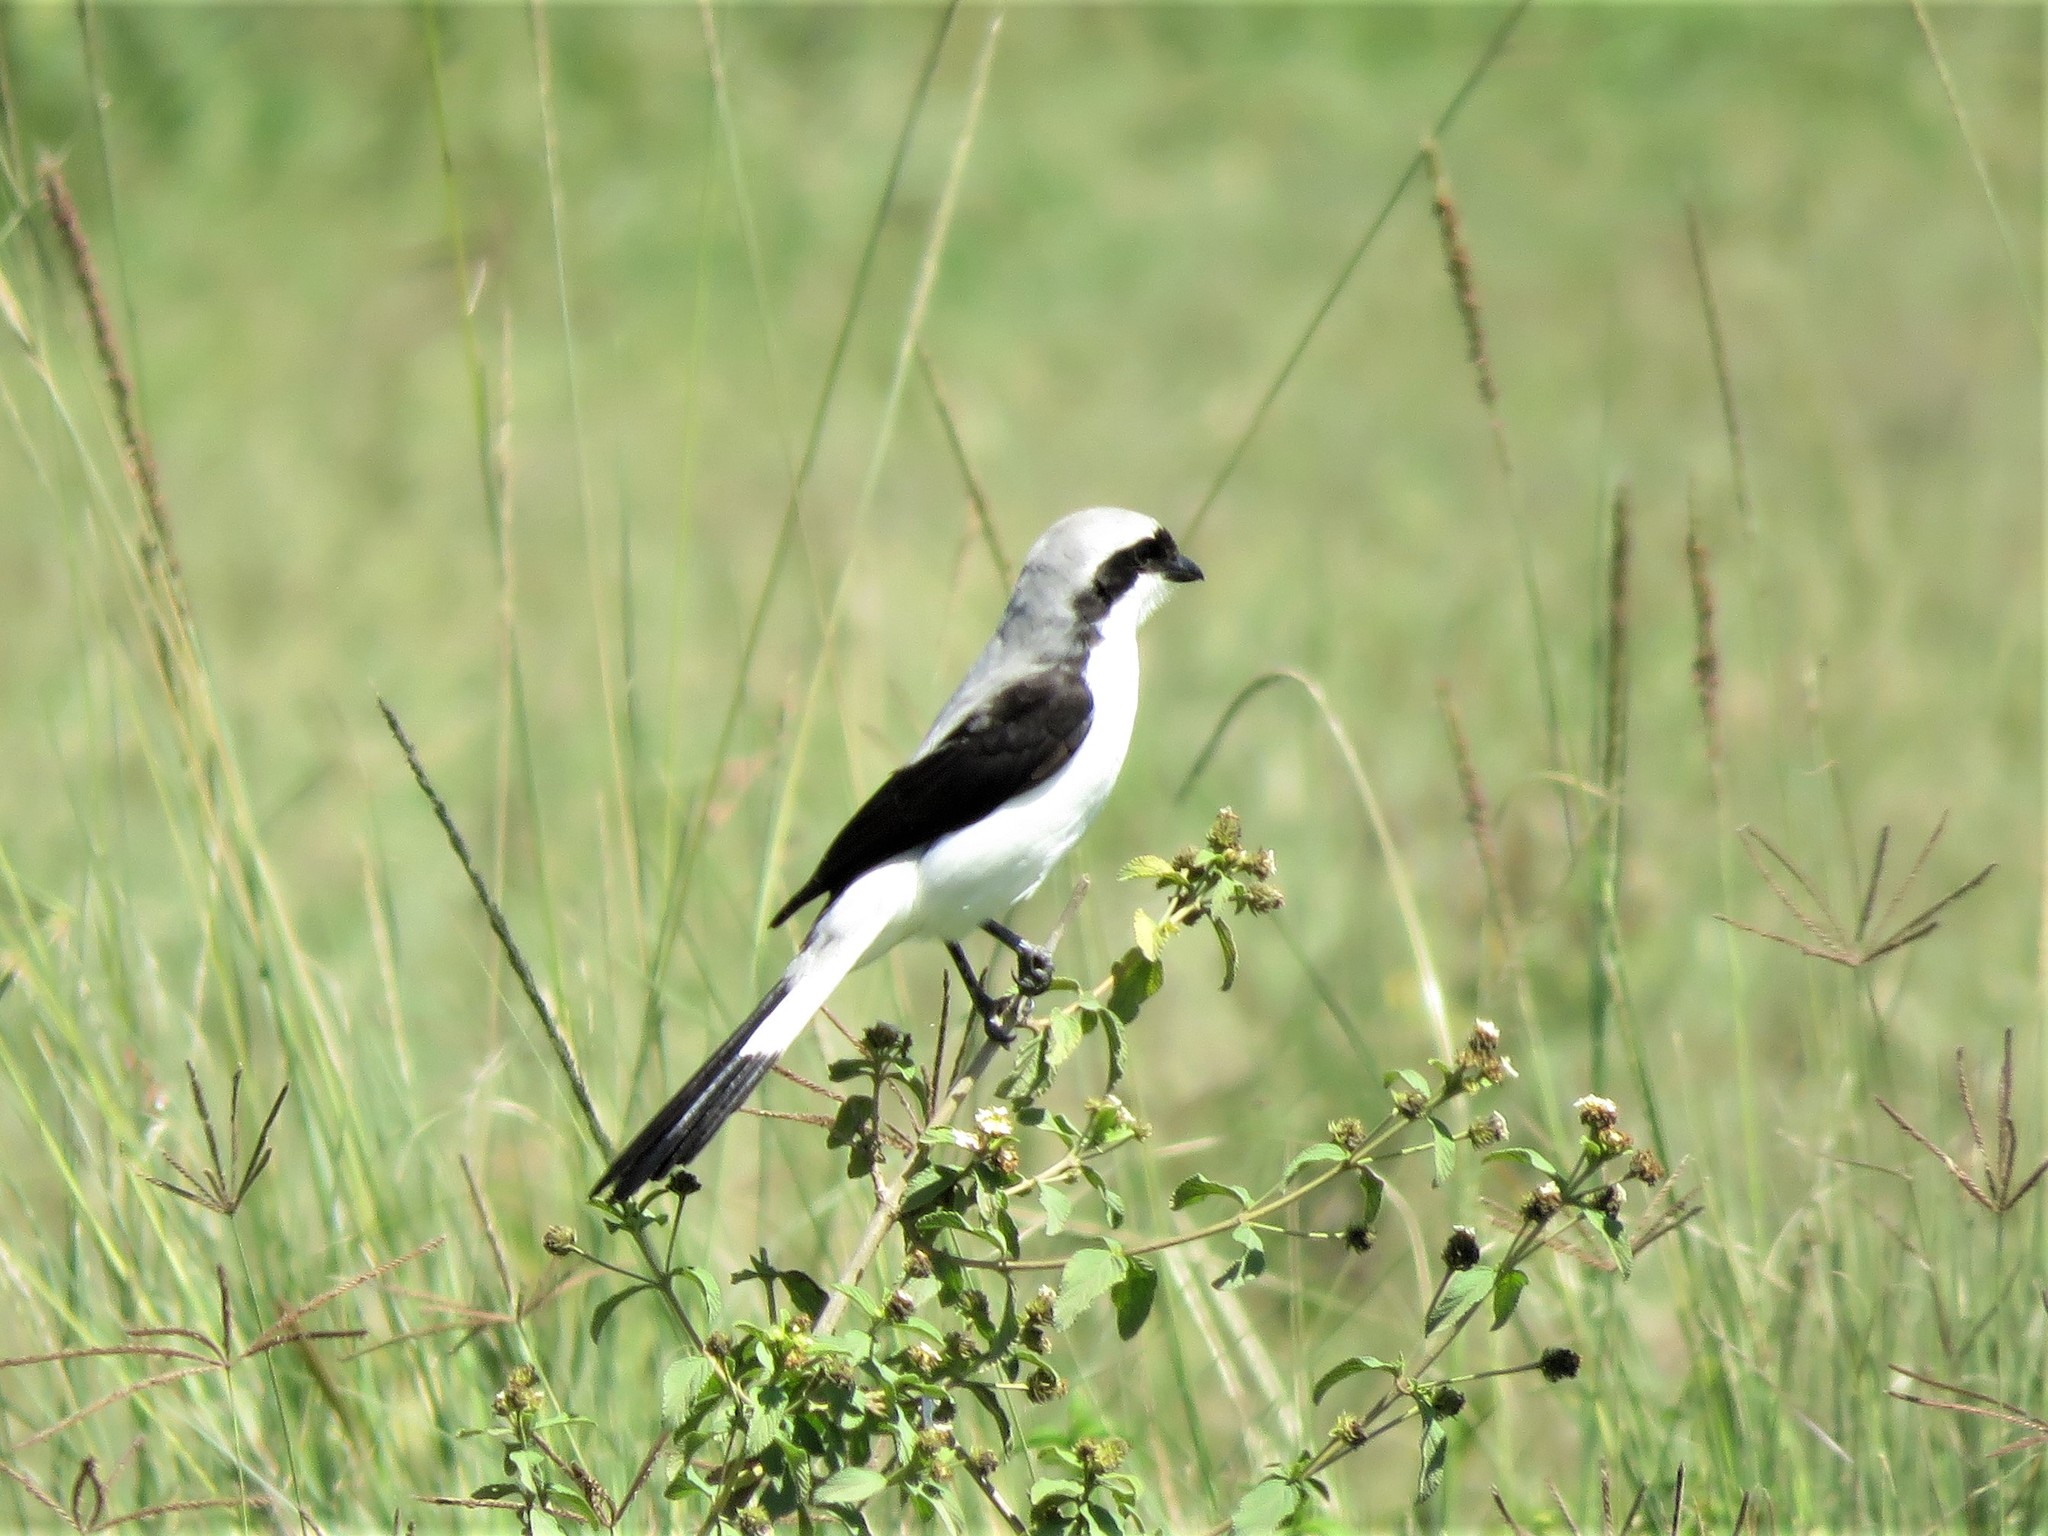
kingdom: Animalia
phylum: Chordata
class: Aves
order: Passeriformes
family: Laniidae
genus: Lanius
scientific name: Lanius excubitoroides
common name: Grey-backed fiscal
